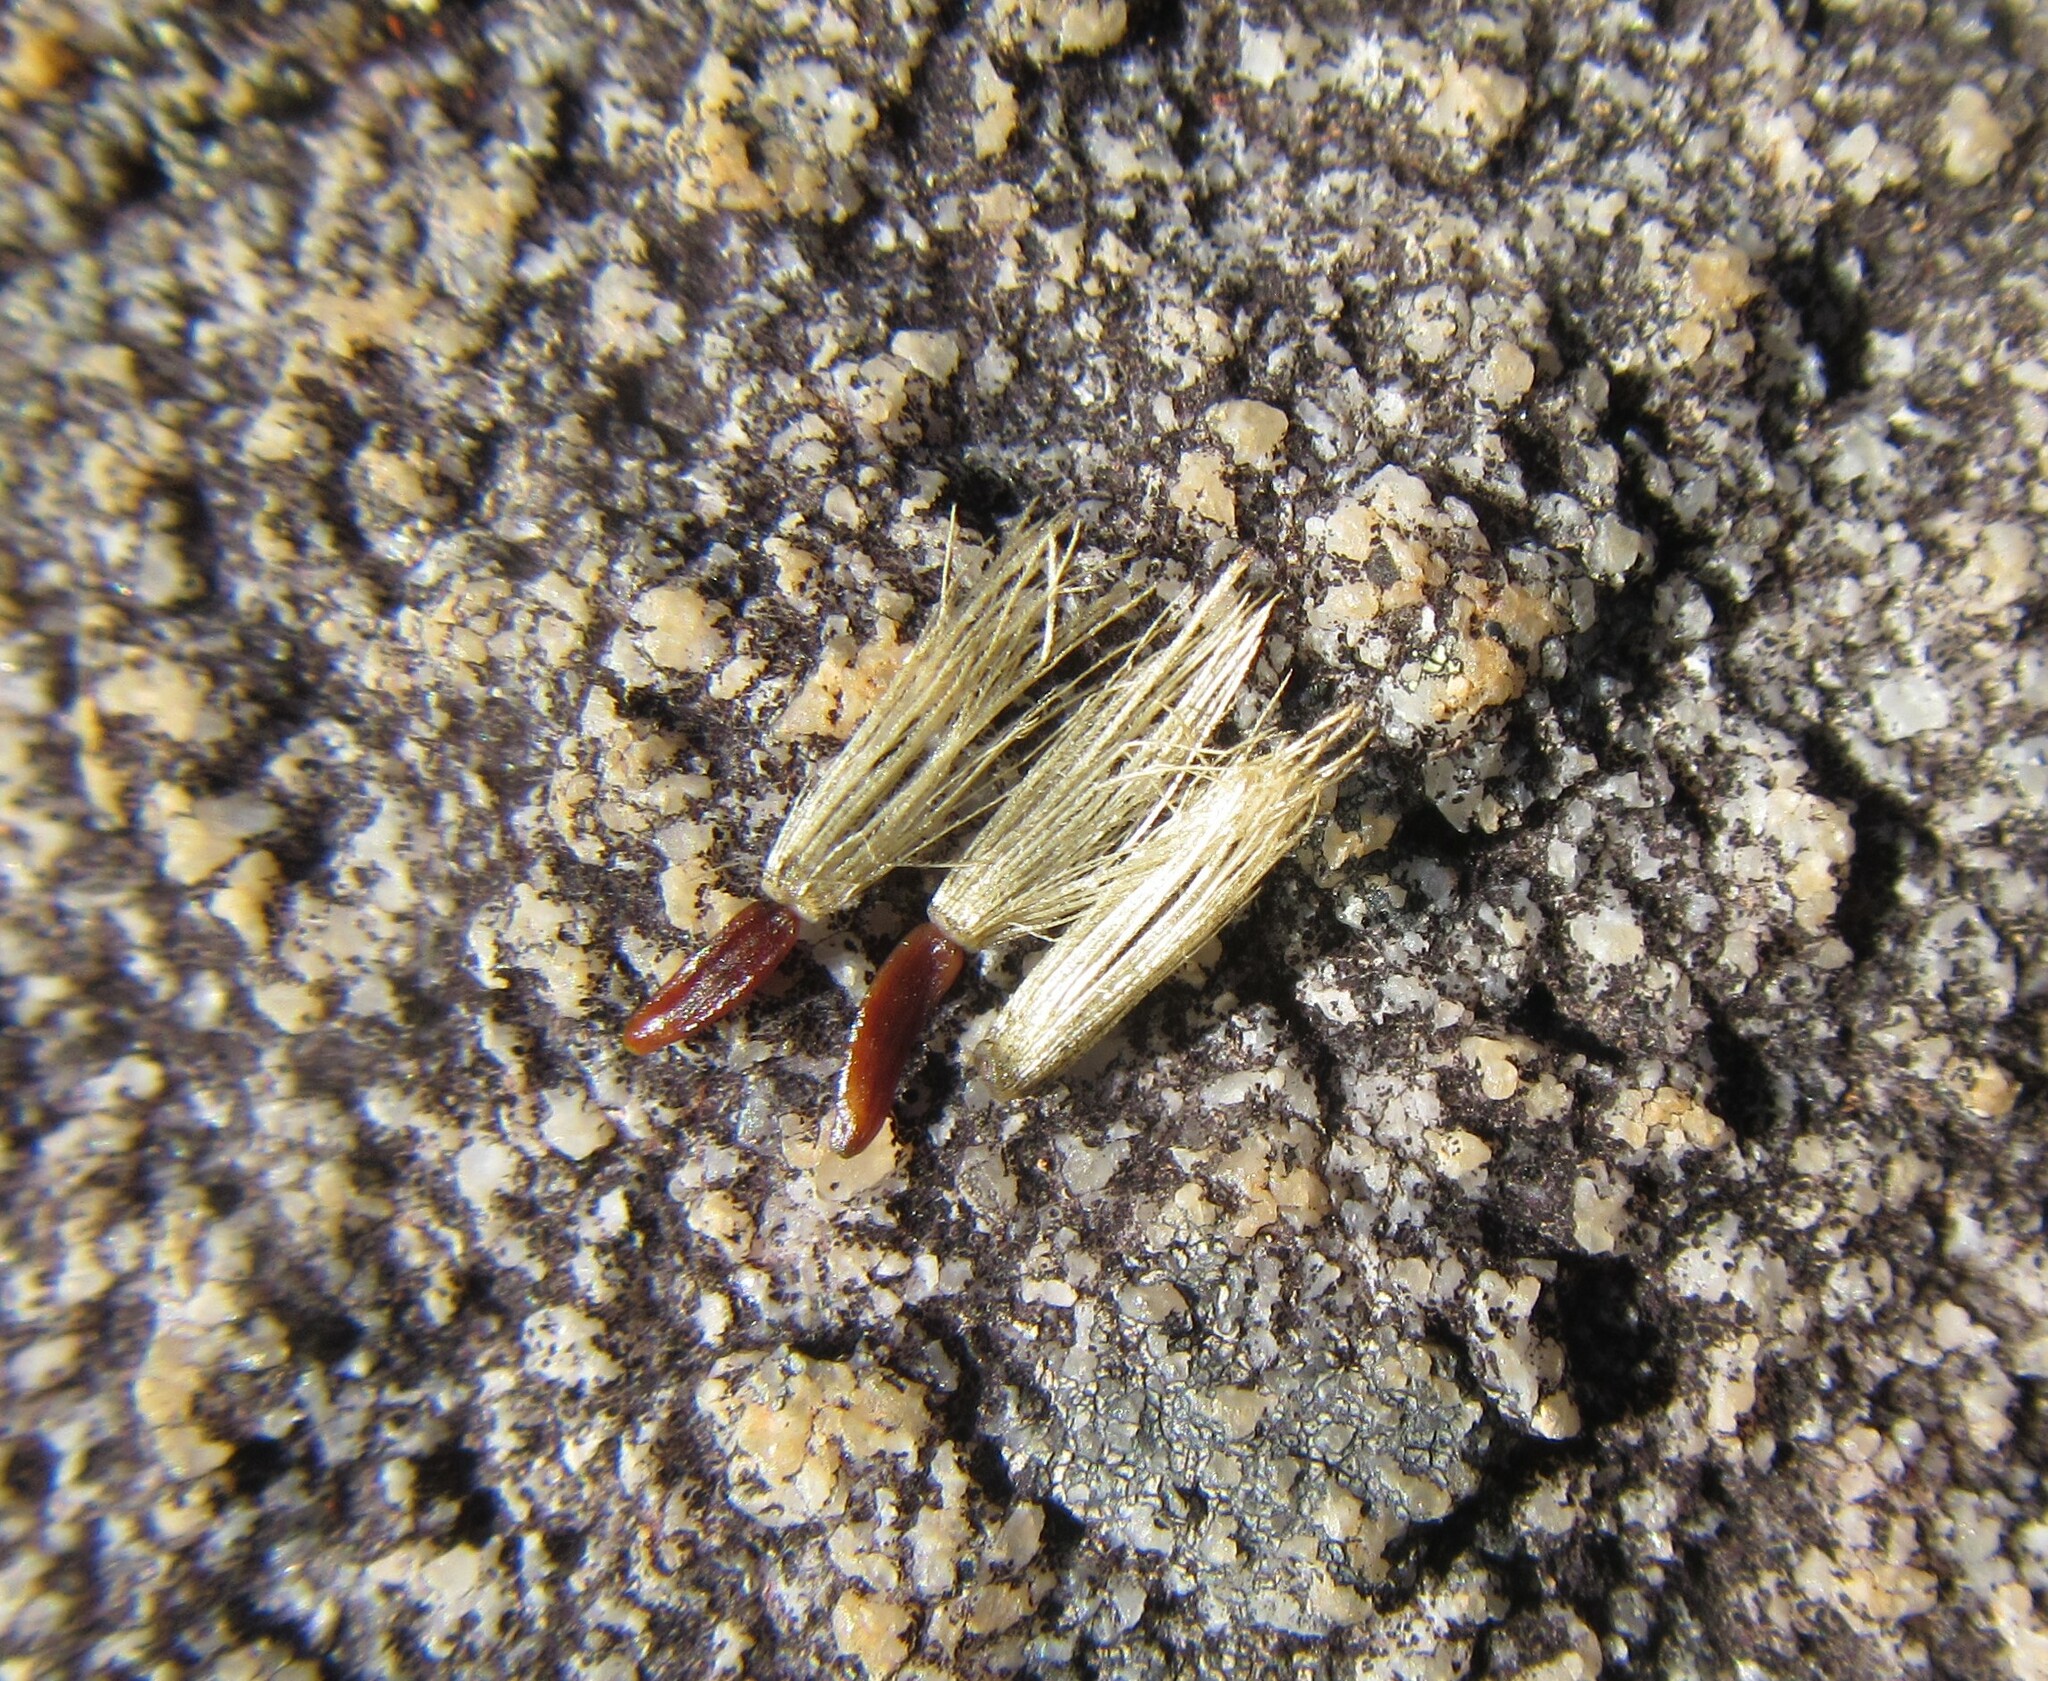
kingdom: Plantae
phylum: Tracheophyta
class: Magnoliopsida
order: Asterales
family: Asteraceae
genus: Pteronia
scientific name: Pteronia cederbergensis
